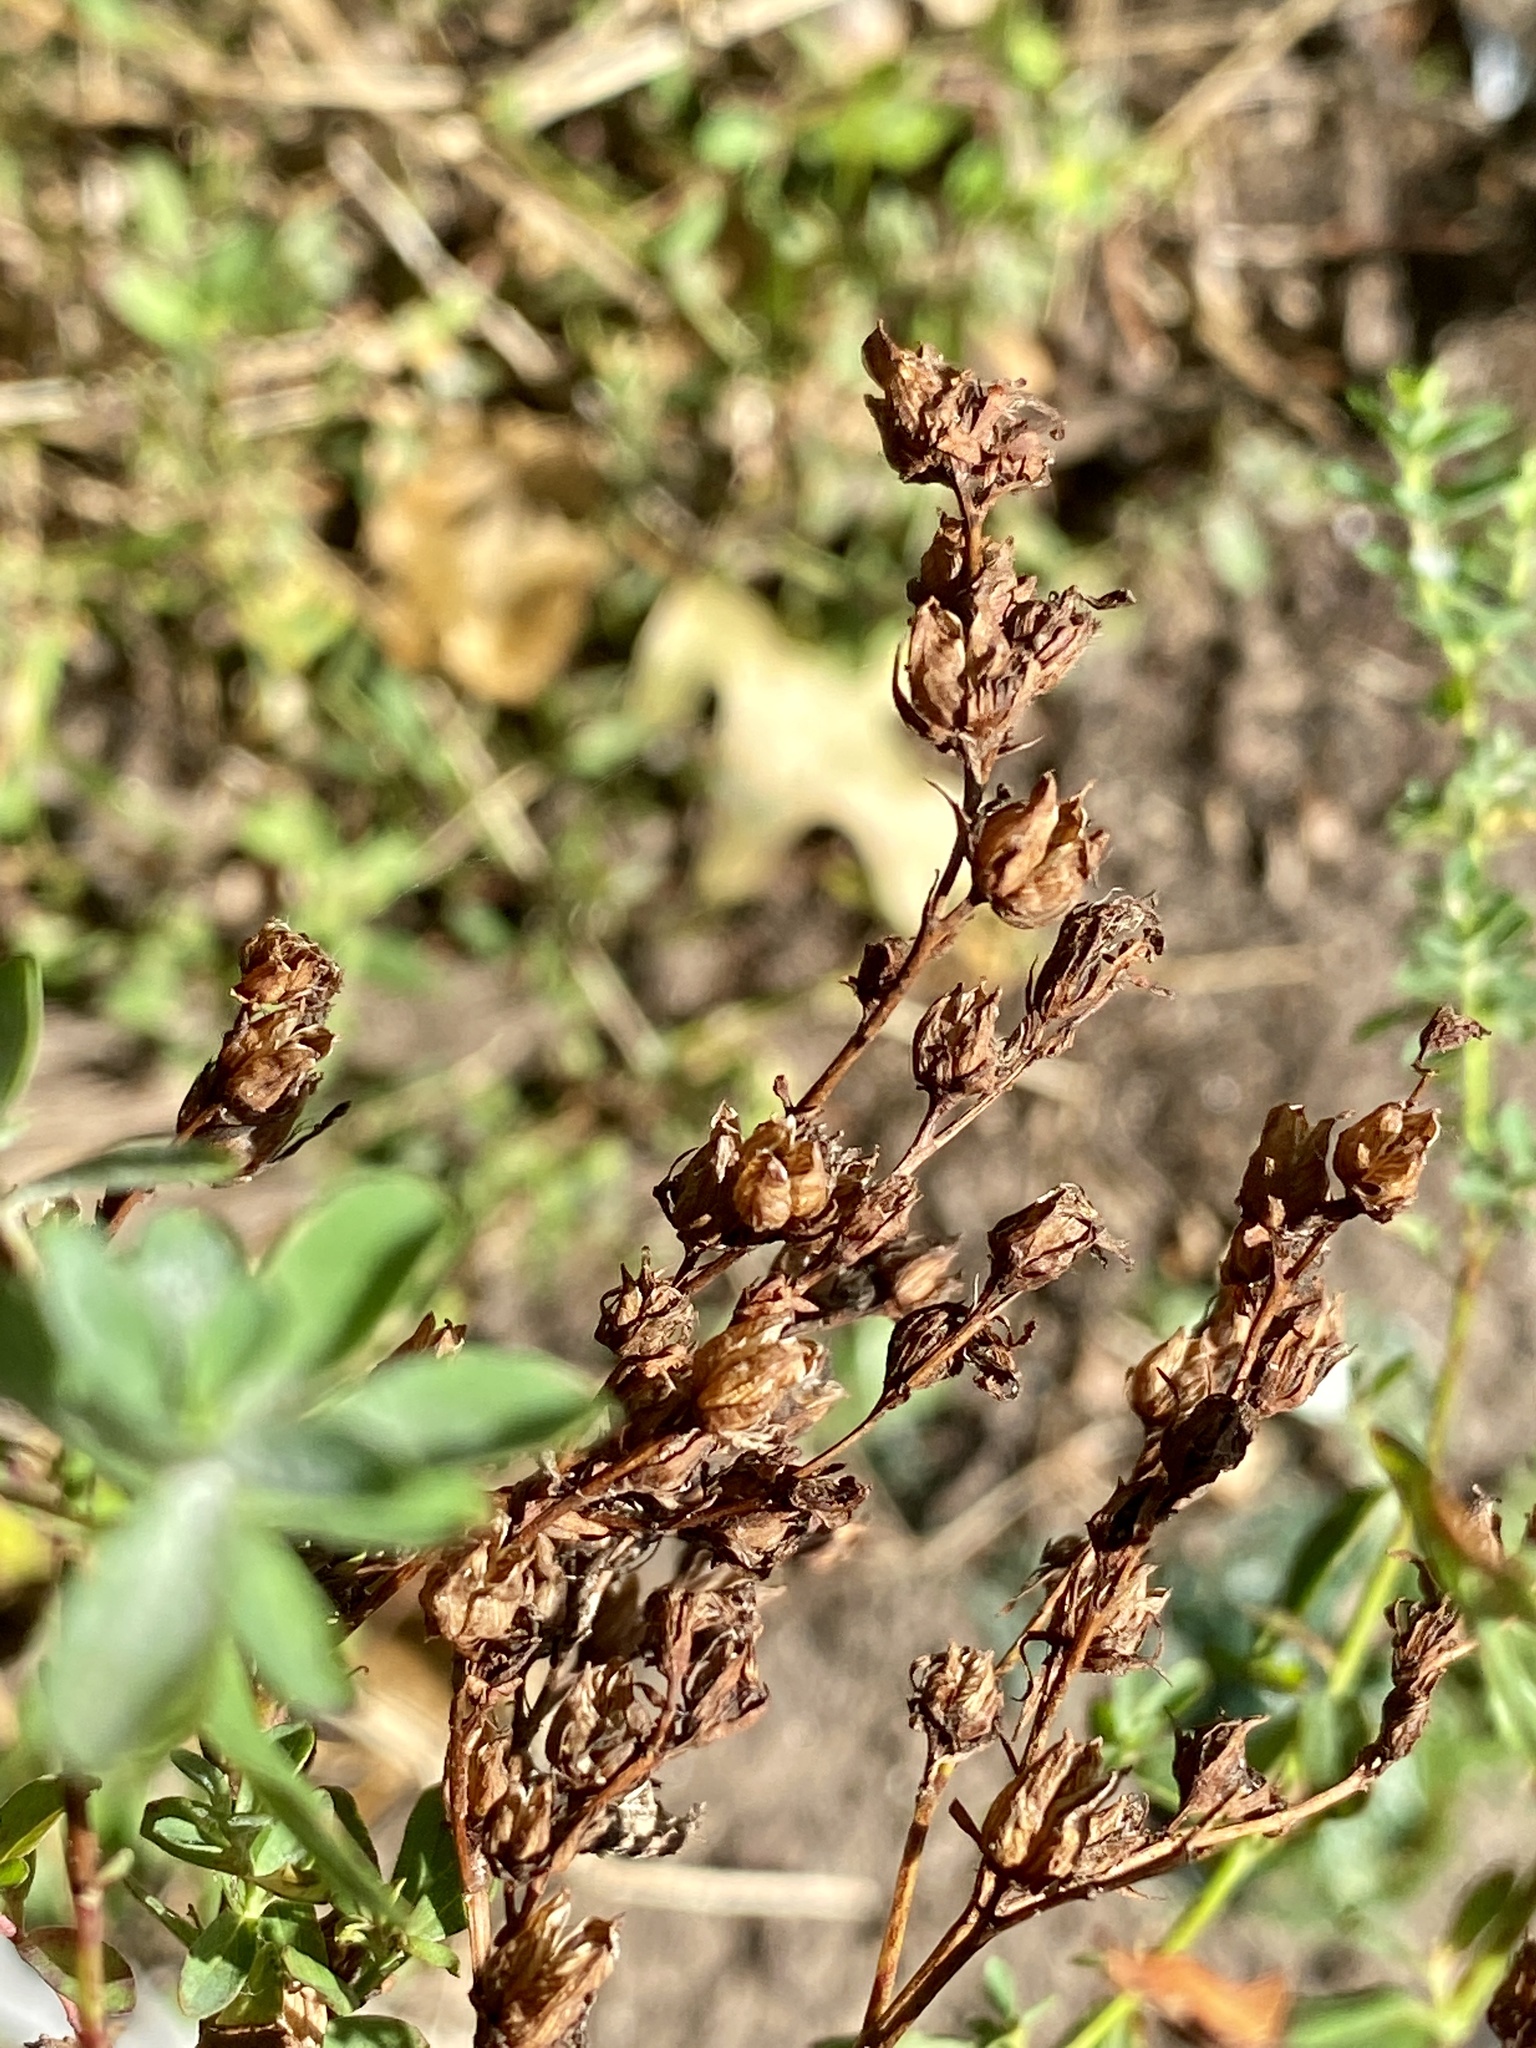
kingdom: Plantae
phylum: Tracheophyta
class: Magnoliopsida
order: Malpighiales
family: Hypericaceae
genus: Hypericum
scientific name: Hypericum perforatum
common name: Common st. johnswort
